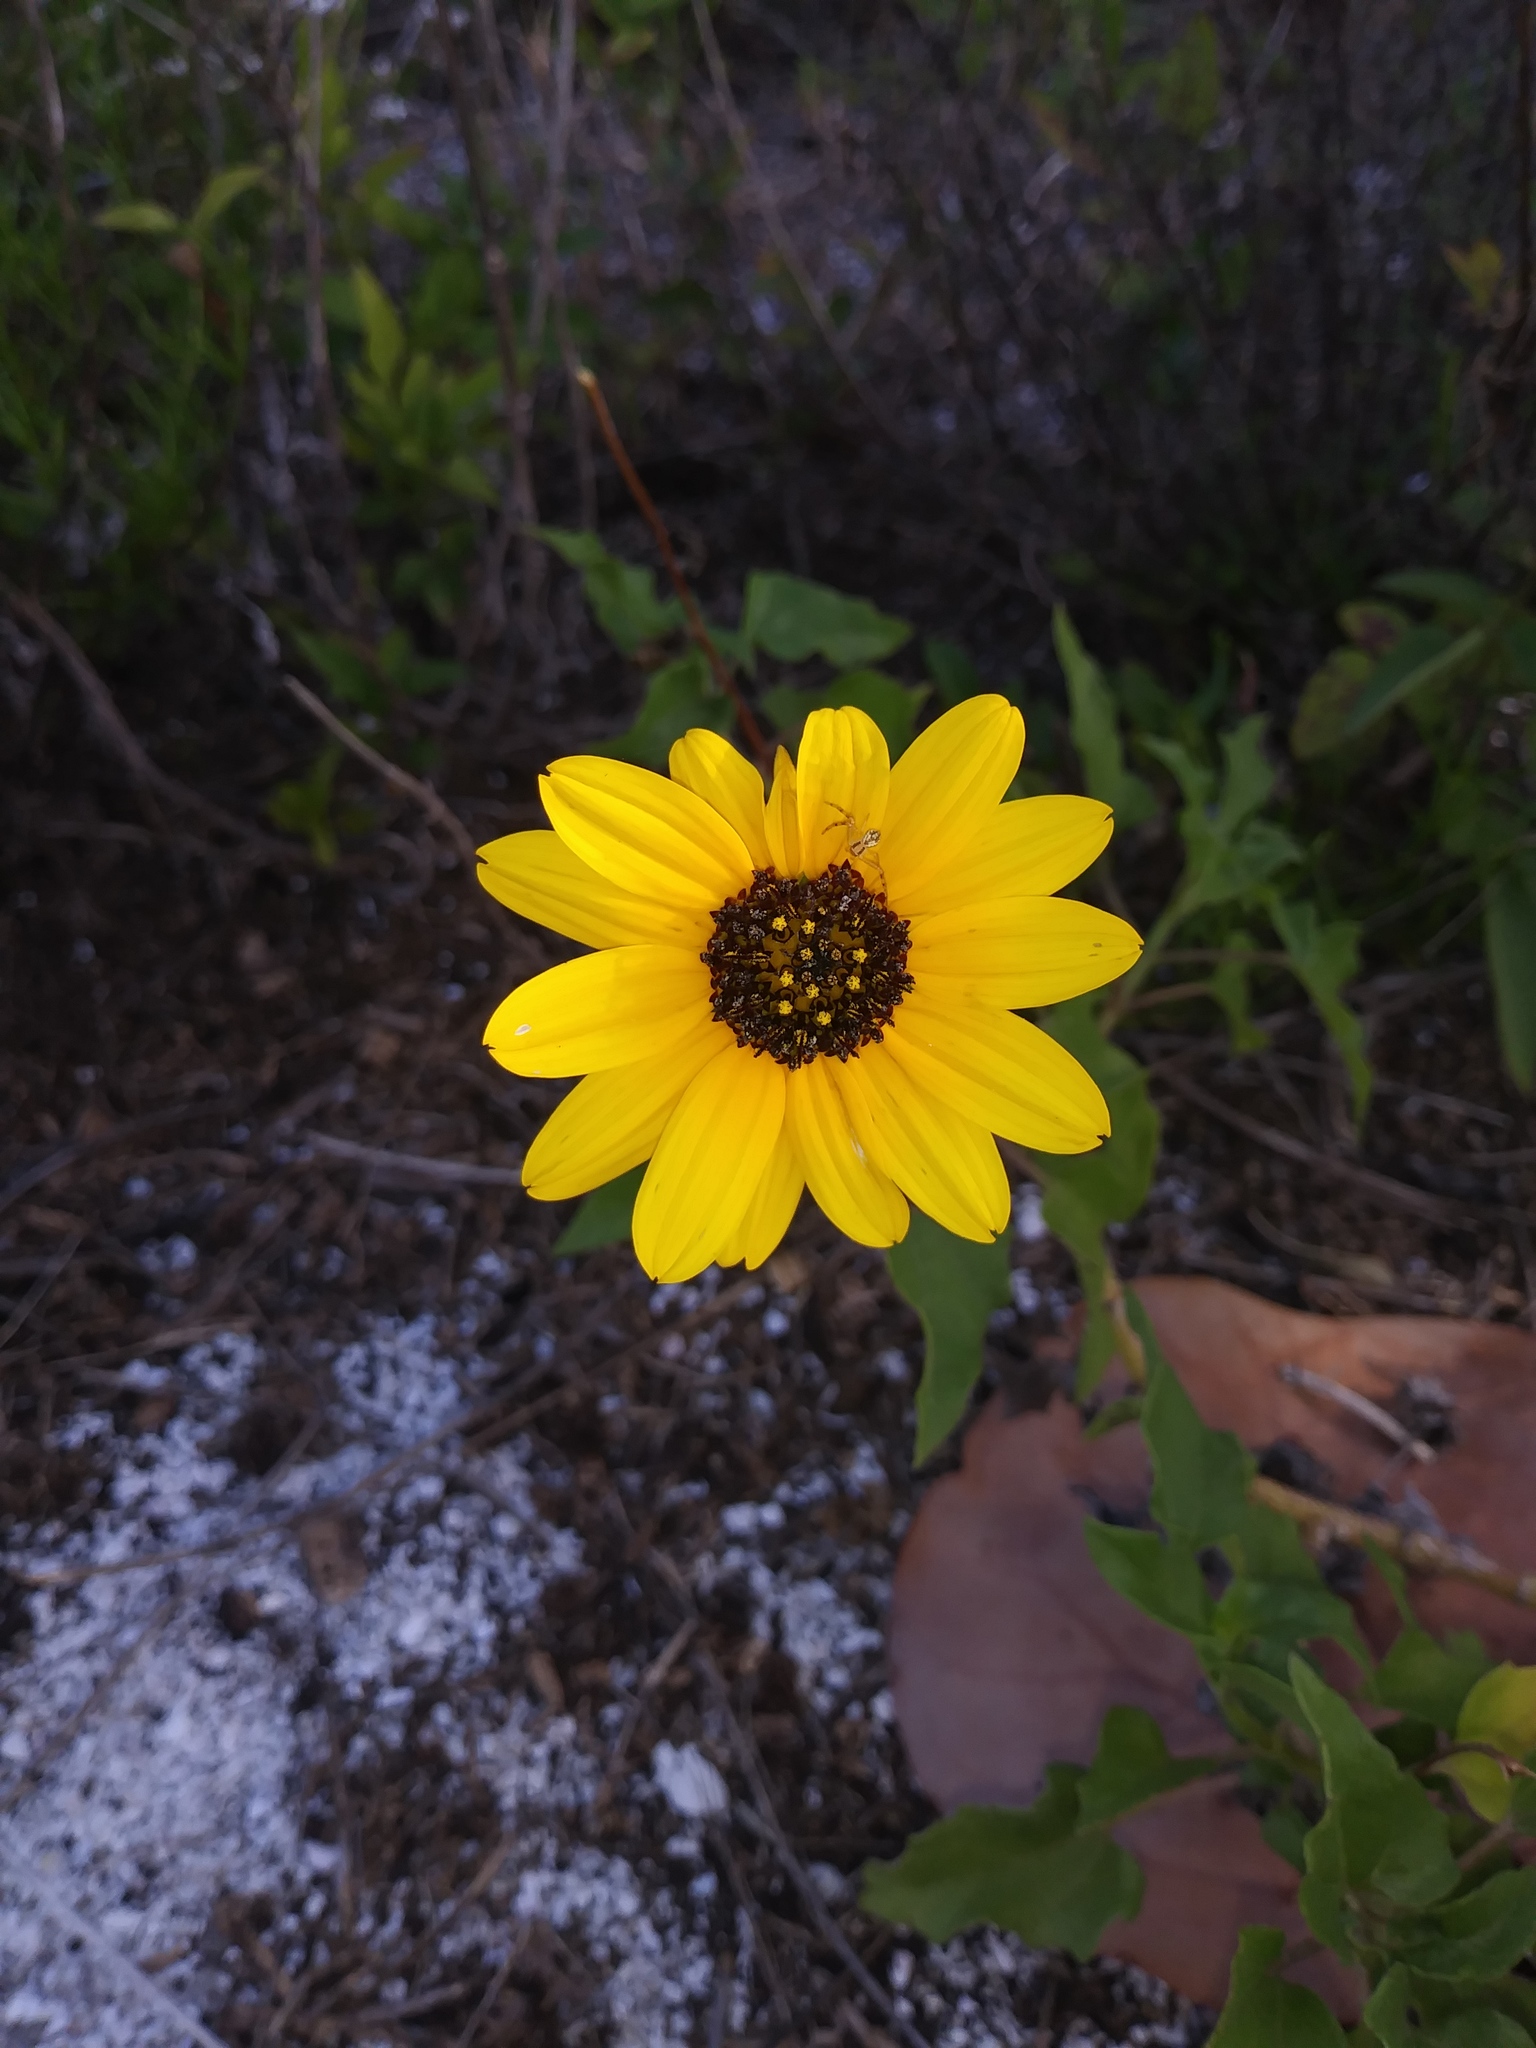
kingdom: Plantae
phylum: Tracheophyta
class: Magnoliopsida
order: Asterales
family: Asteraceae
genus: Helianthus
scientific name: Helianthus debilis
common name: Weak sunflower
